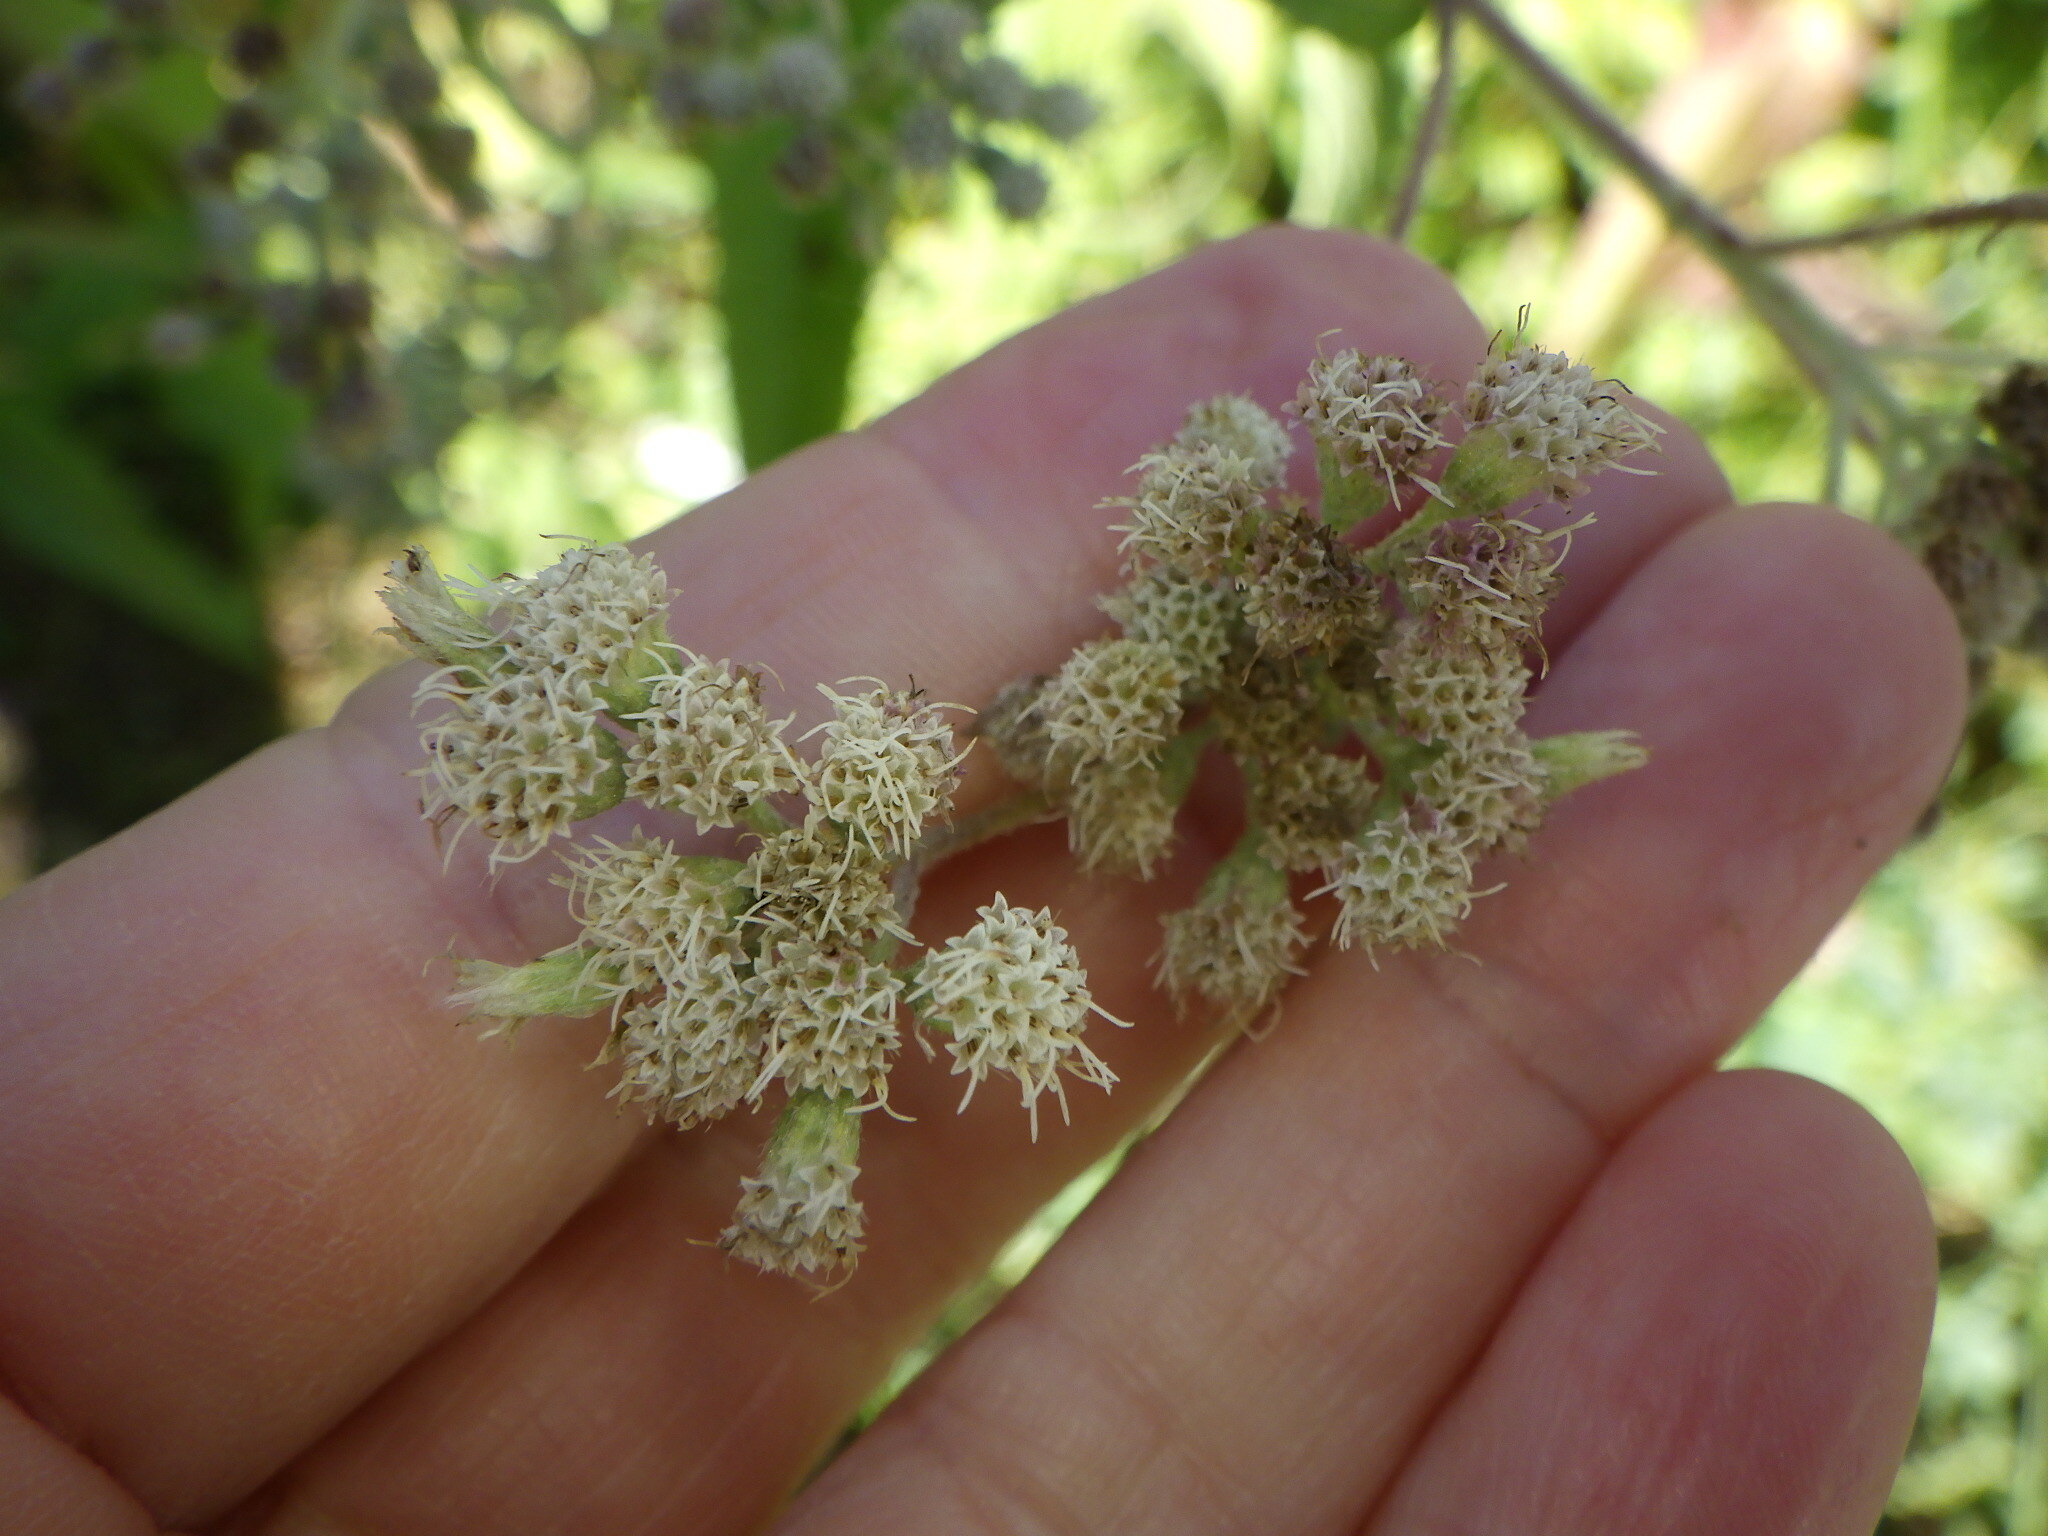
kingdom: Plantae
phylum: Tracheophyta
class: Magnoliopsida
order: Asterales
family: Asteraceae
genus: Eupatorium
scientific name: Eupatorium perfoliatum
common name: Boneset
